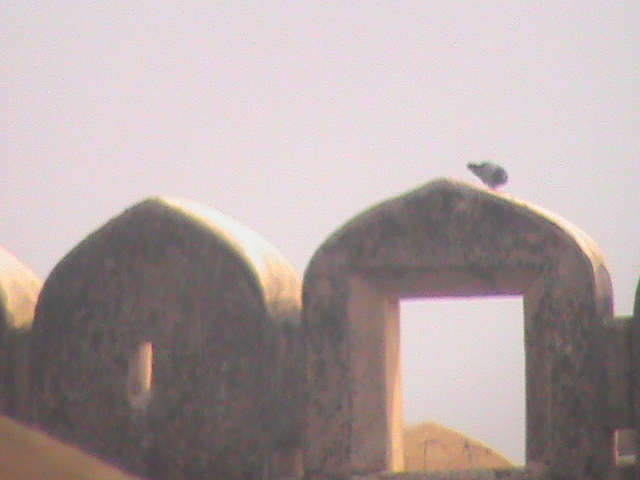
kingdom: Animalia
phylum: Chordata
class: Aves
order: Columbiformes
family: Columbidae
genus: Columba
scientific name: Columba livia
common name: Rock pigeon
